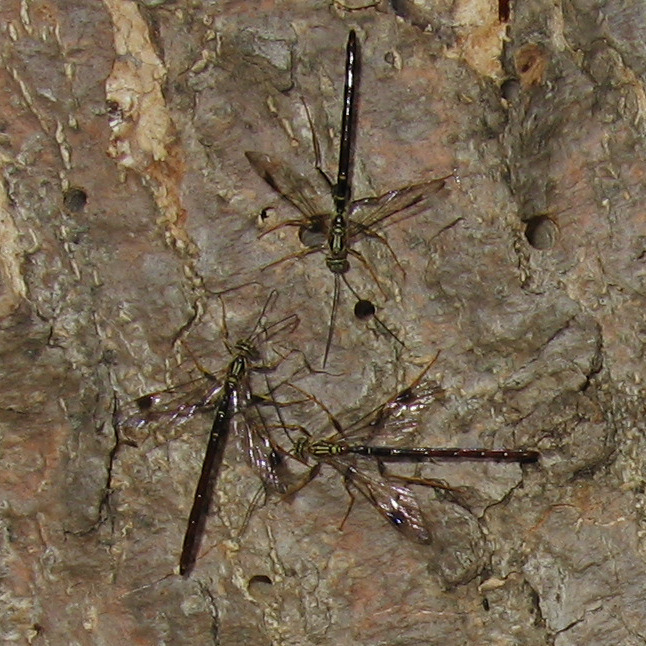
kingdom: Animalia
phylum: Arthropoda
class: Insecta
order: Hymenoptera
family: Ichneumonidae
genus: Megarhyssa
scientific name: Megarhyssa macrura
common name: Long-tailed giant ichneumonid wasp
